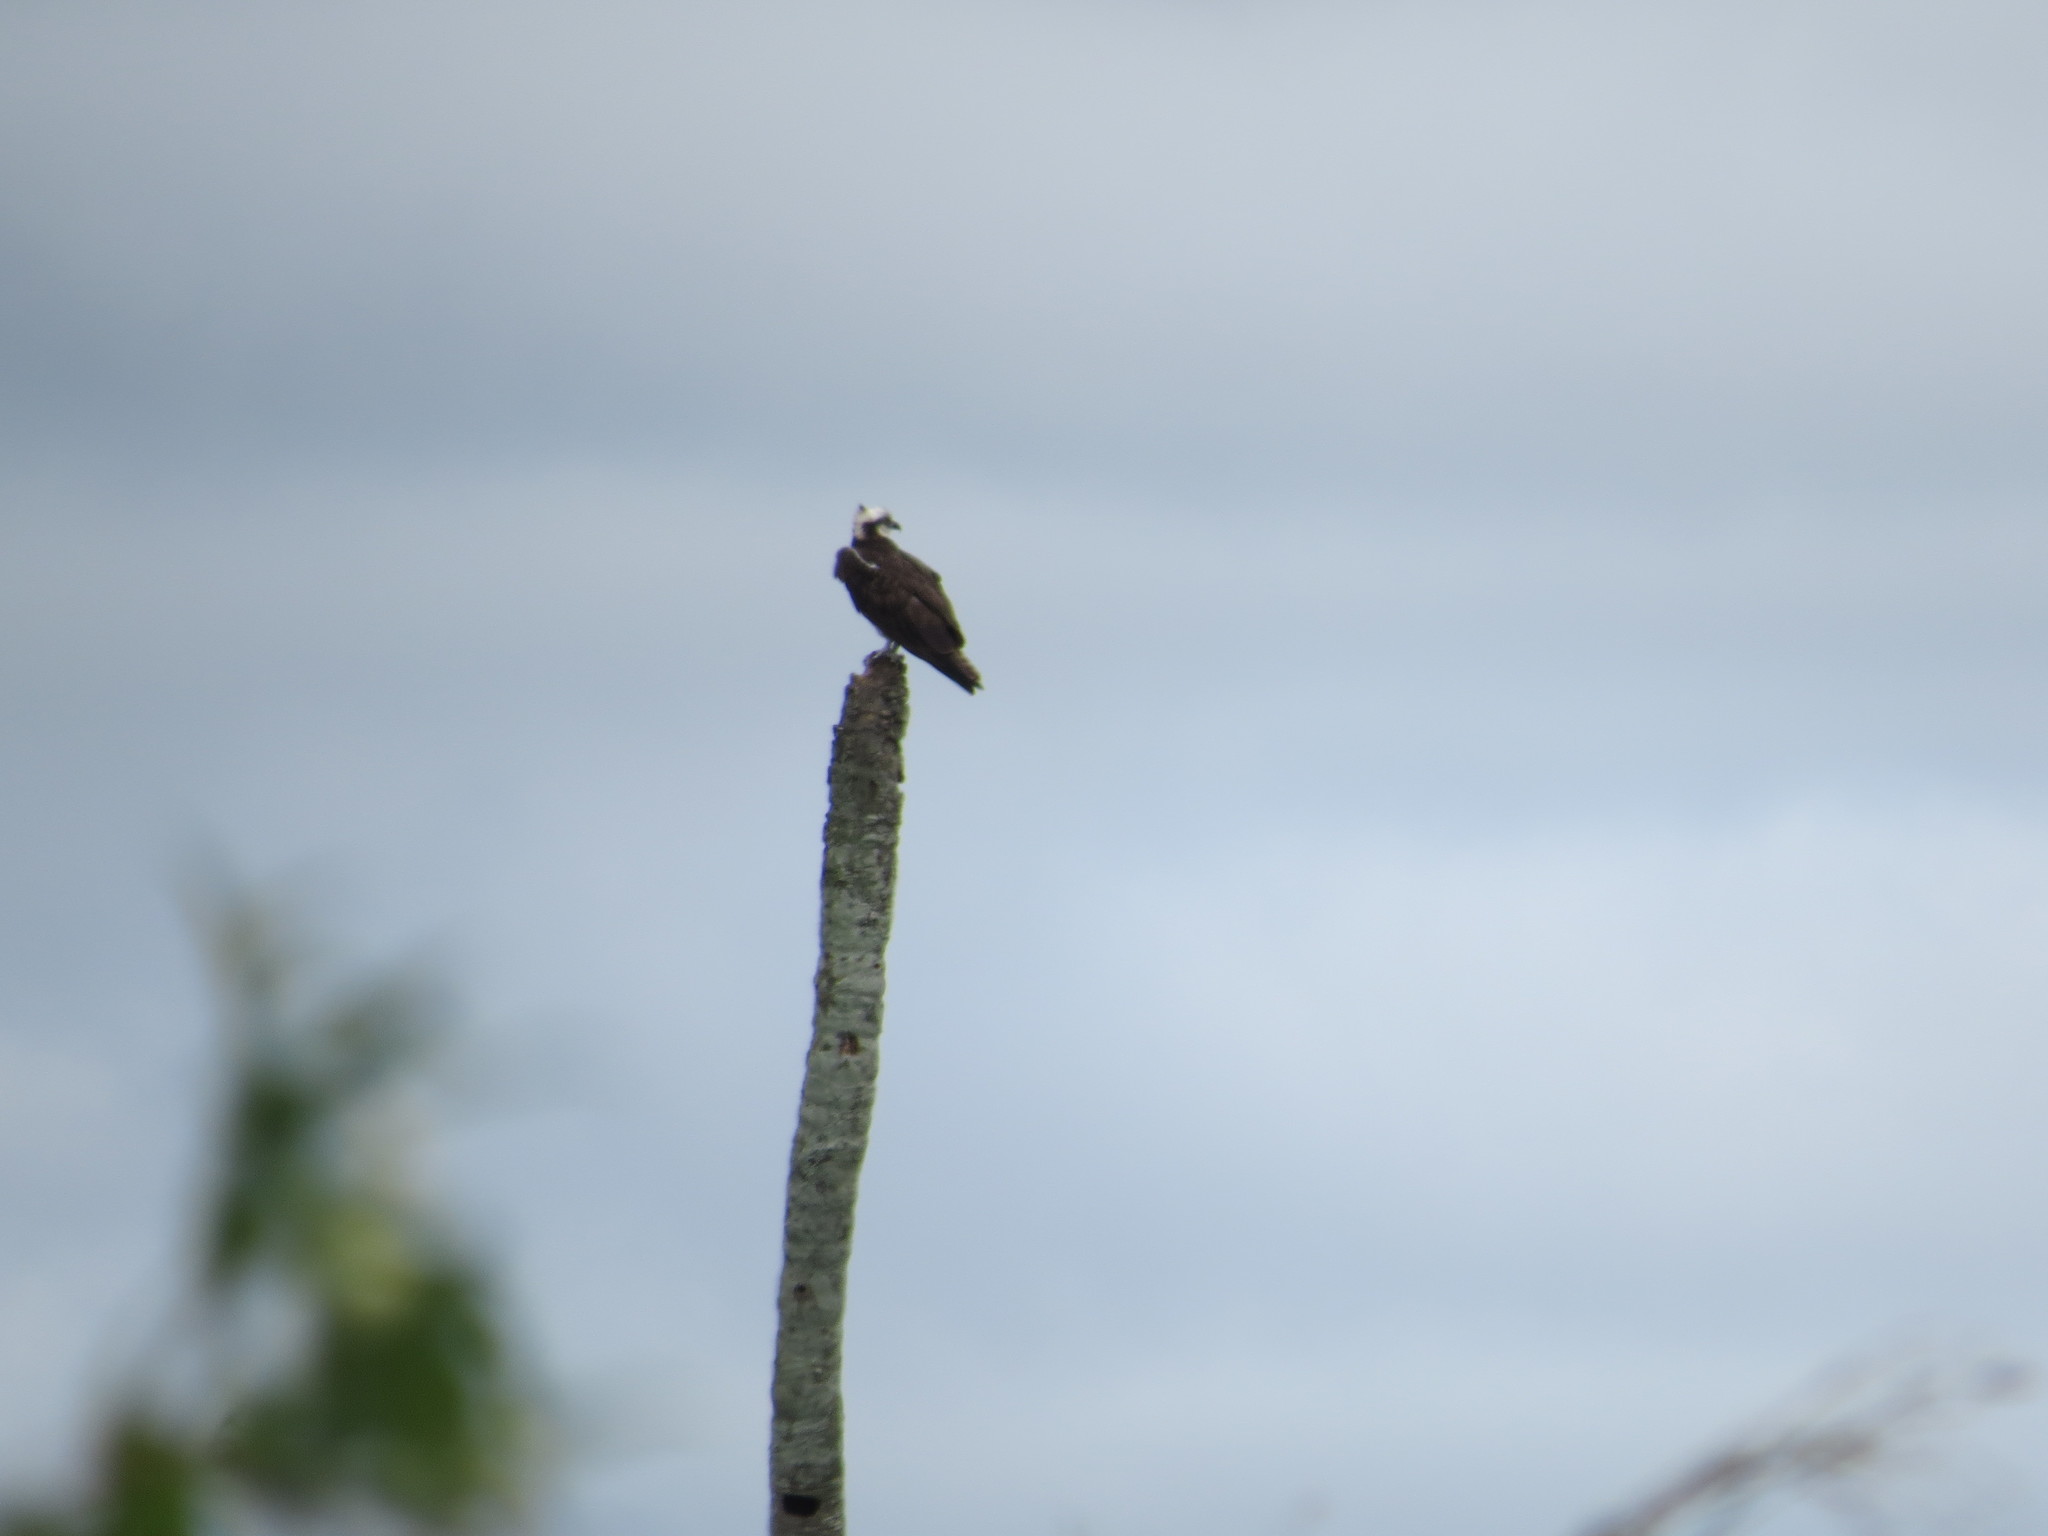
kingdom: Animalia
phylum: Chordata
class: Aves
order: Accipitriformes
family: Pandionidae
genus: Pandion
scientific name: Pandion haliaetus
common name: Osprey
